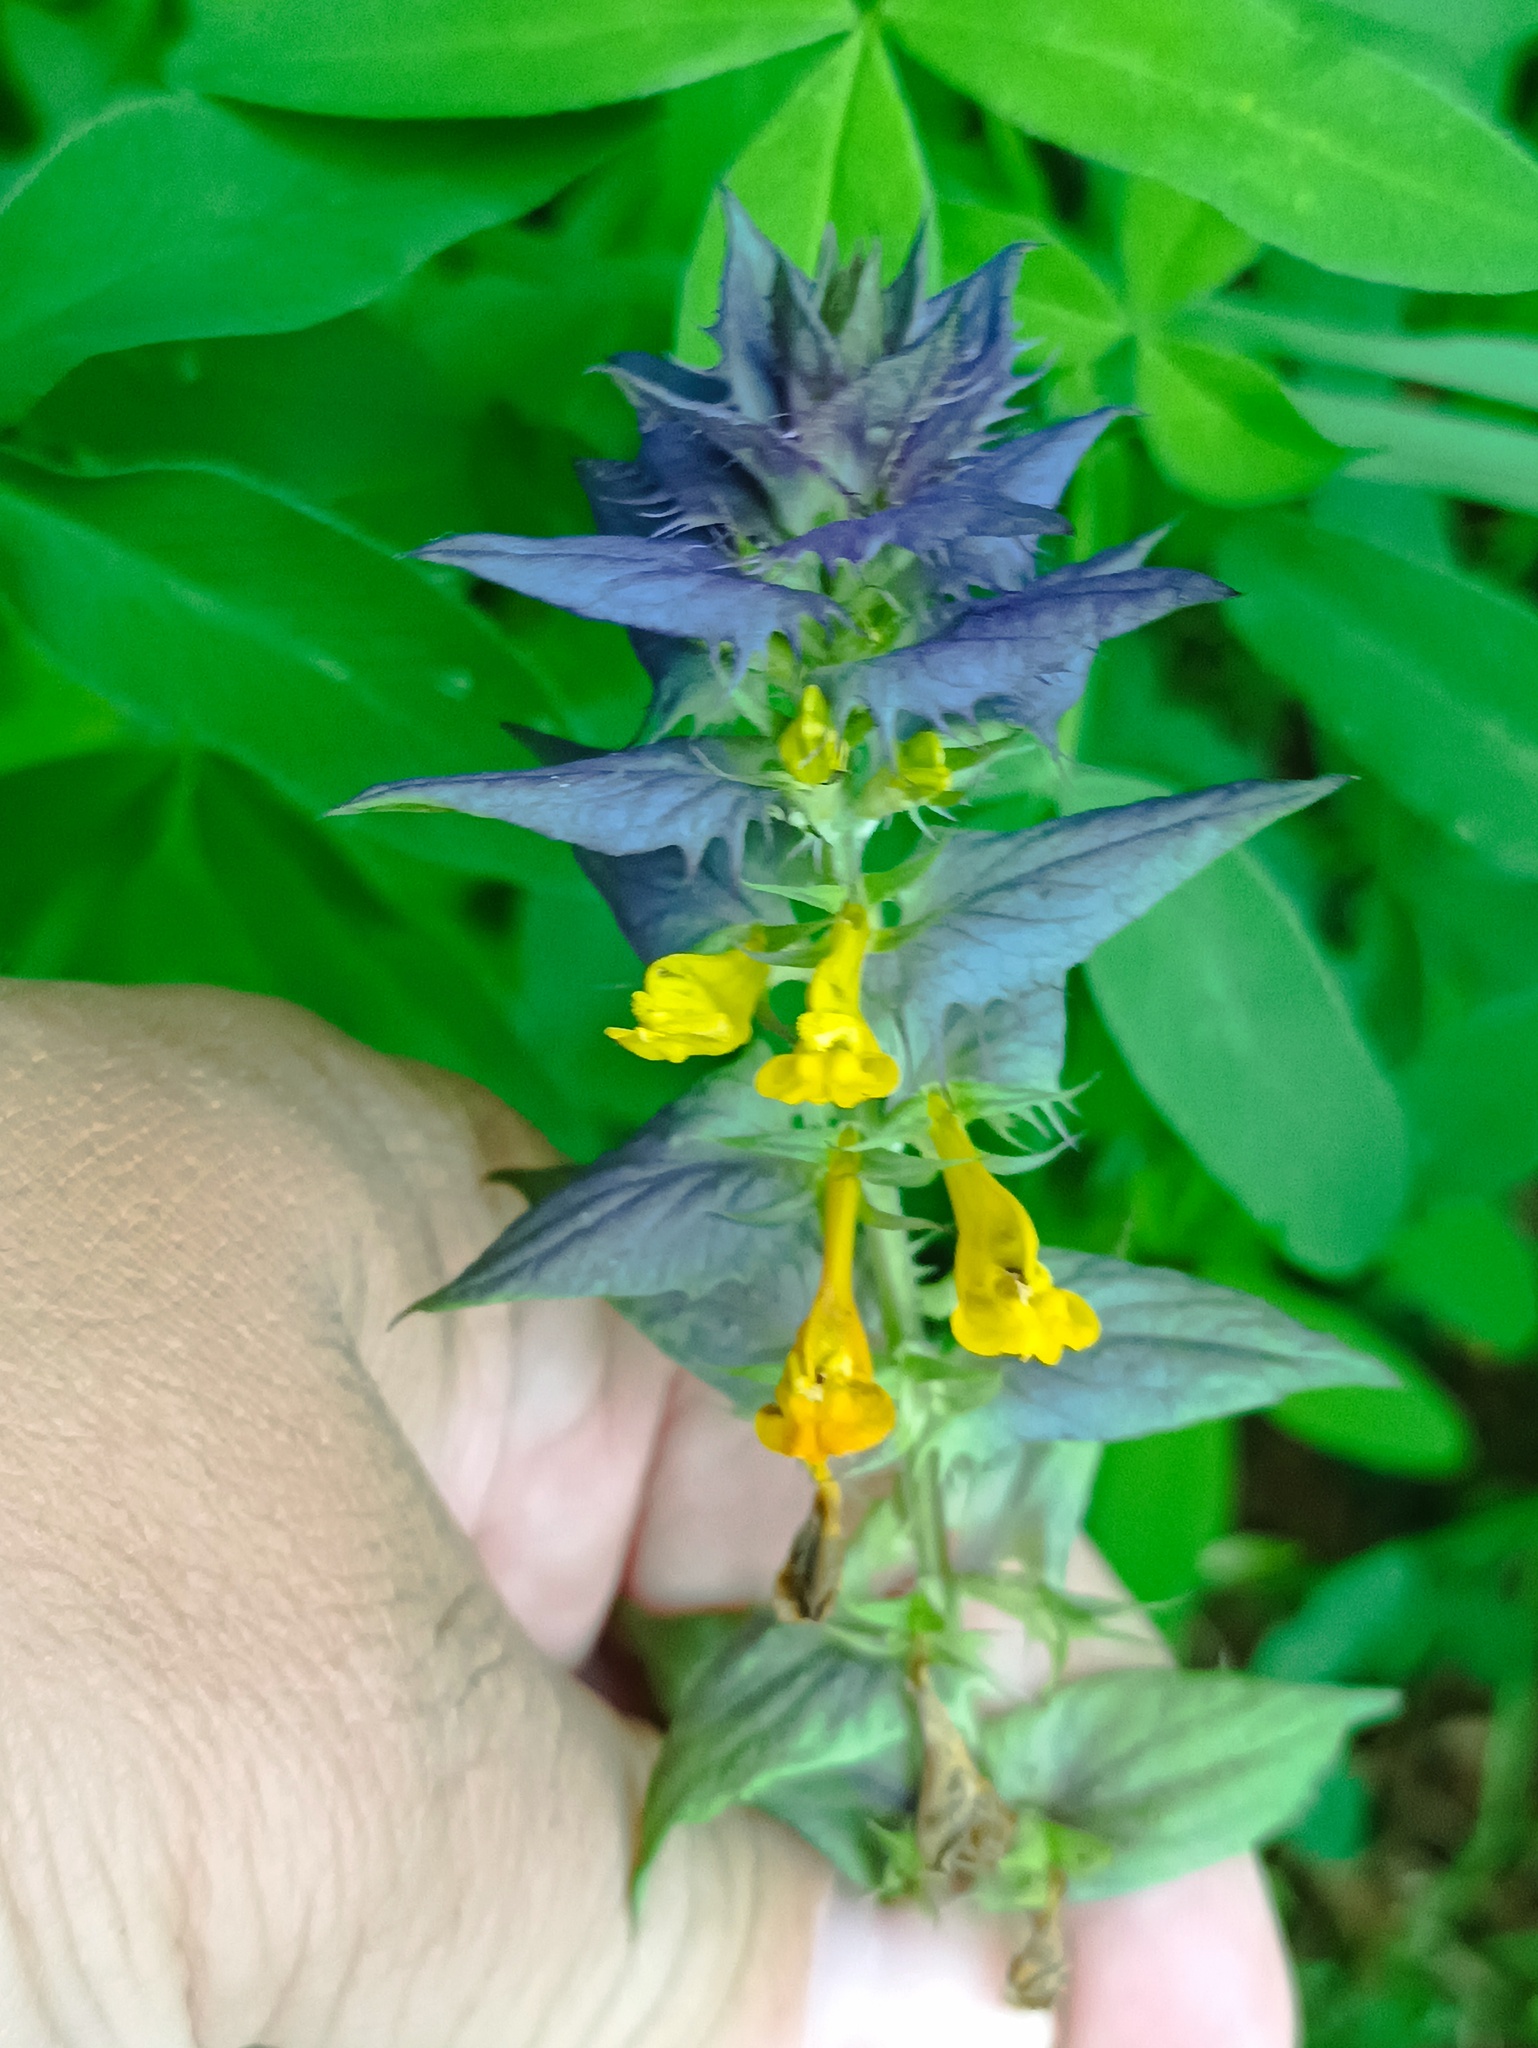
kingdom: Plantae
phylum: Tracheophyta
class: Magnoliopsida
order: Lamiales
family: Orobanchaceae
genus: Melampyrum
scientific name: Melampyrum nemorosum
